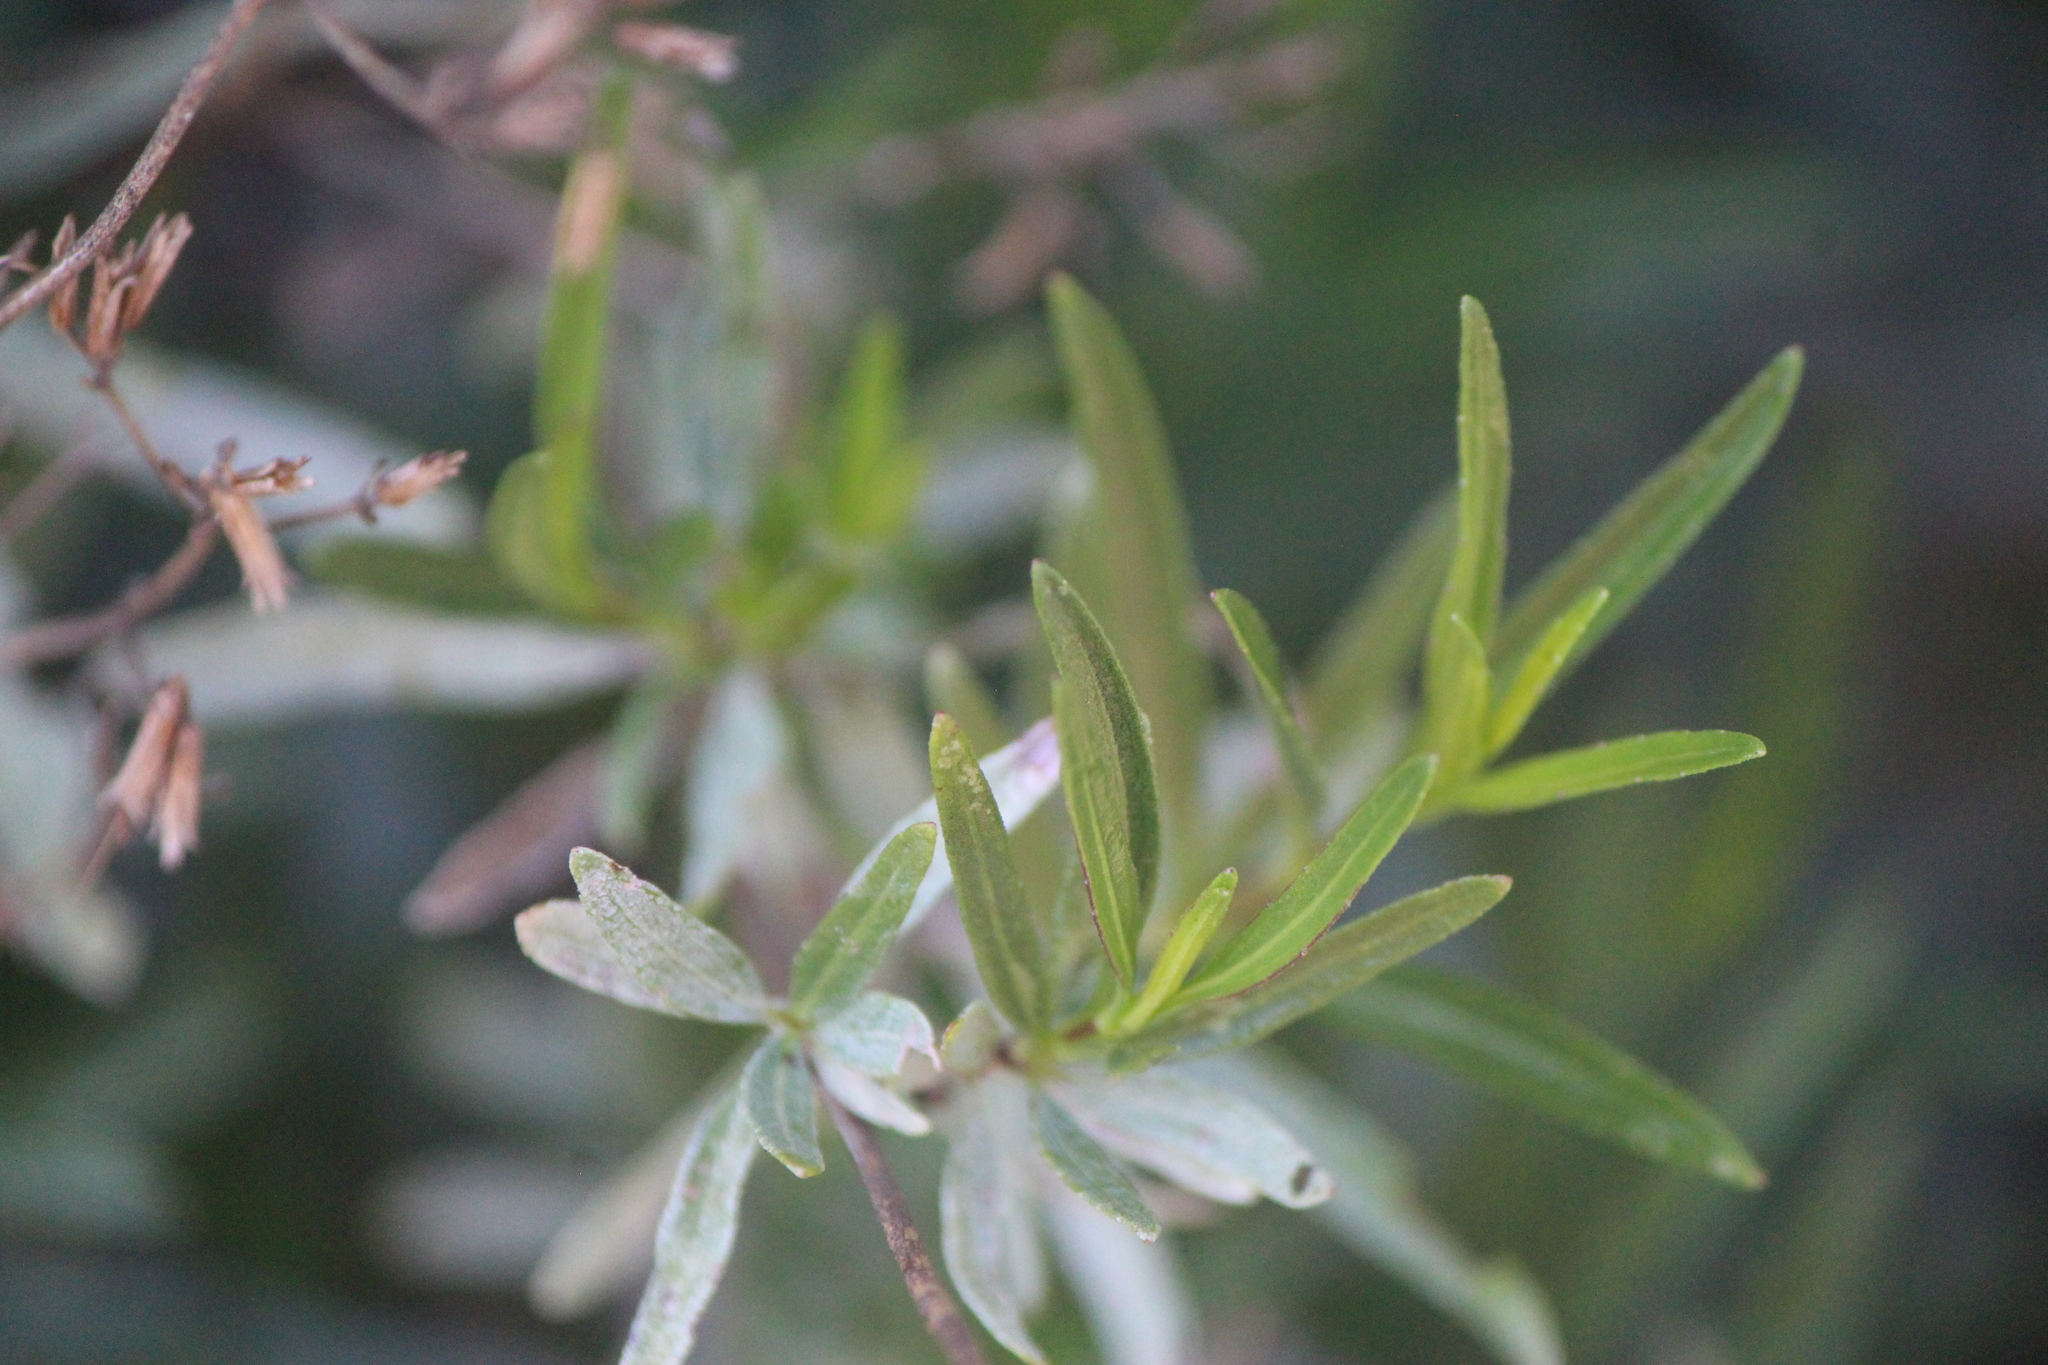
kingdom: Plantae
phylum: Tracheophyta
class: Magnoliopsida
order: Asterales
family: Asteraceae
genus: Stevia
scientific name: Stevia salicifolia
